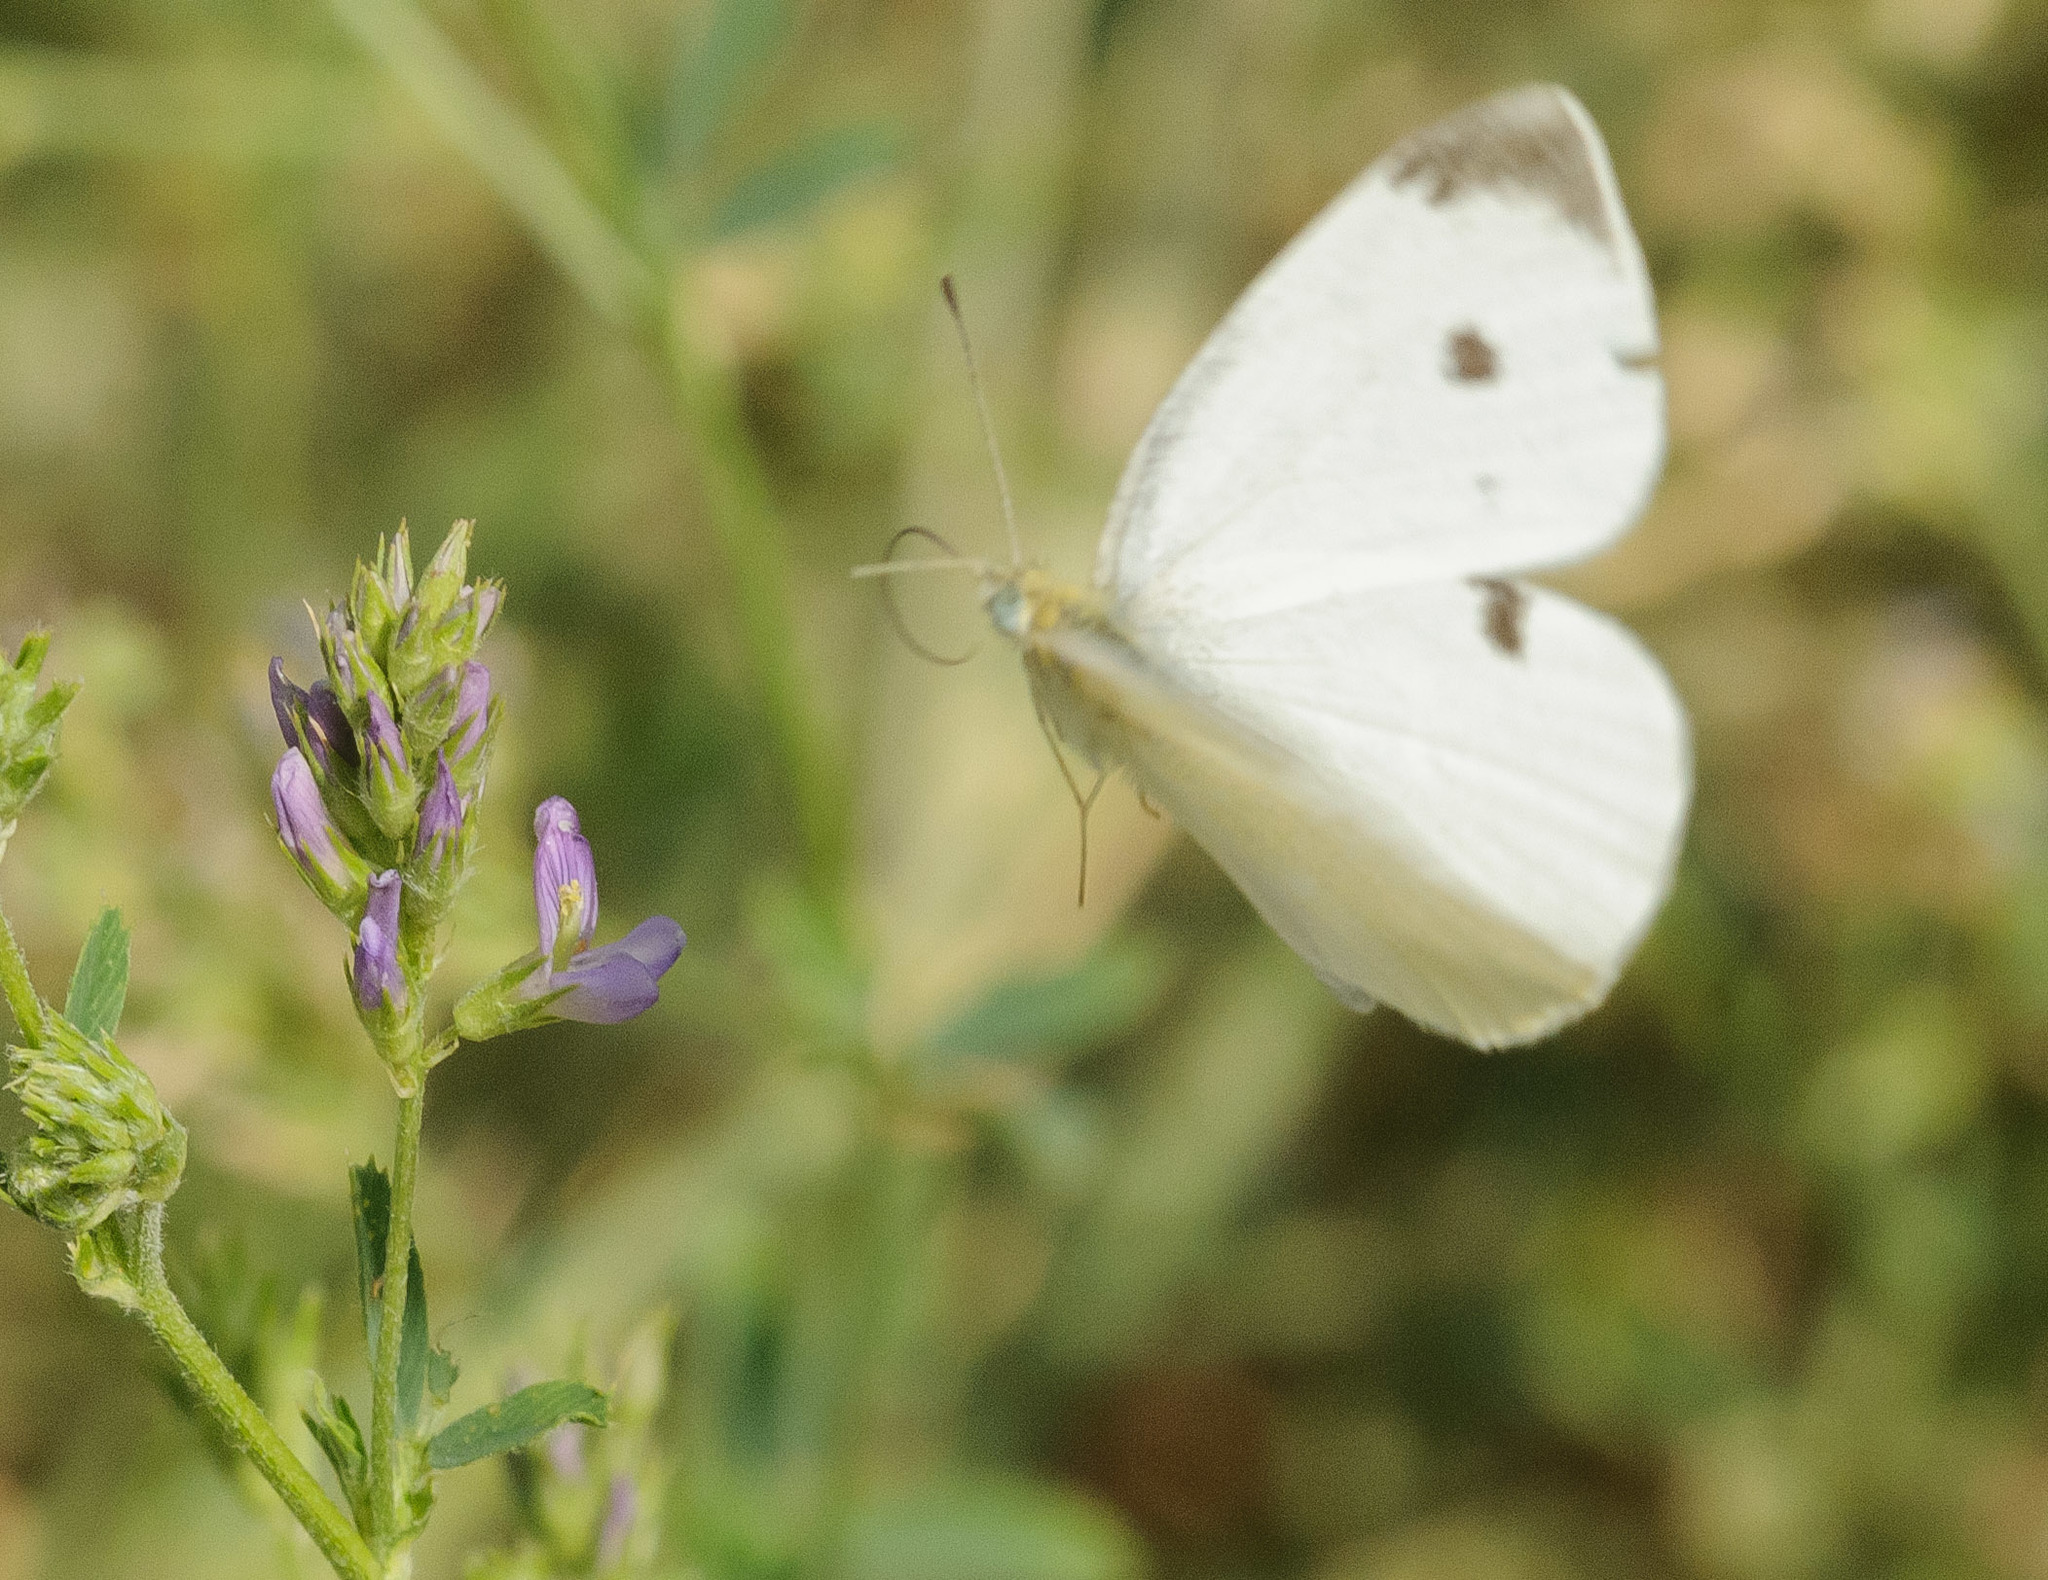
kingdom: Animalia
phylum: Arthropoda
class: Insecta
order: Lepidoptera
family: Pieridae
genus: Pieris
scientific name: Pieris rapae
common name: Small white
